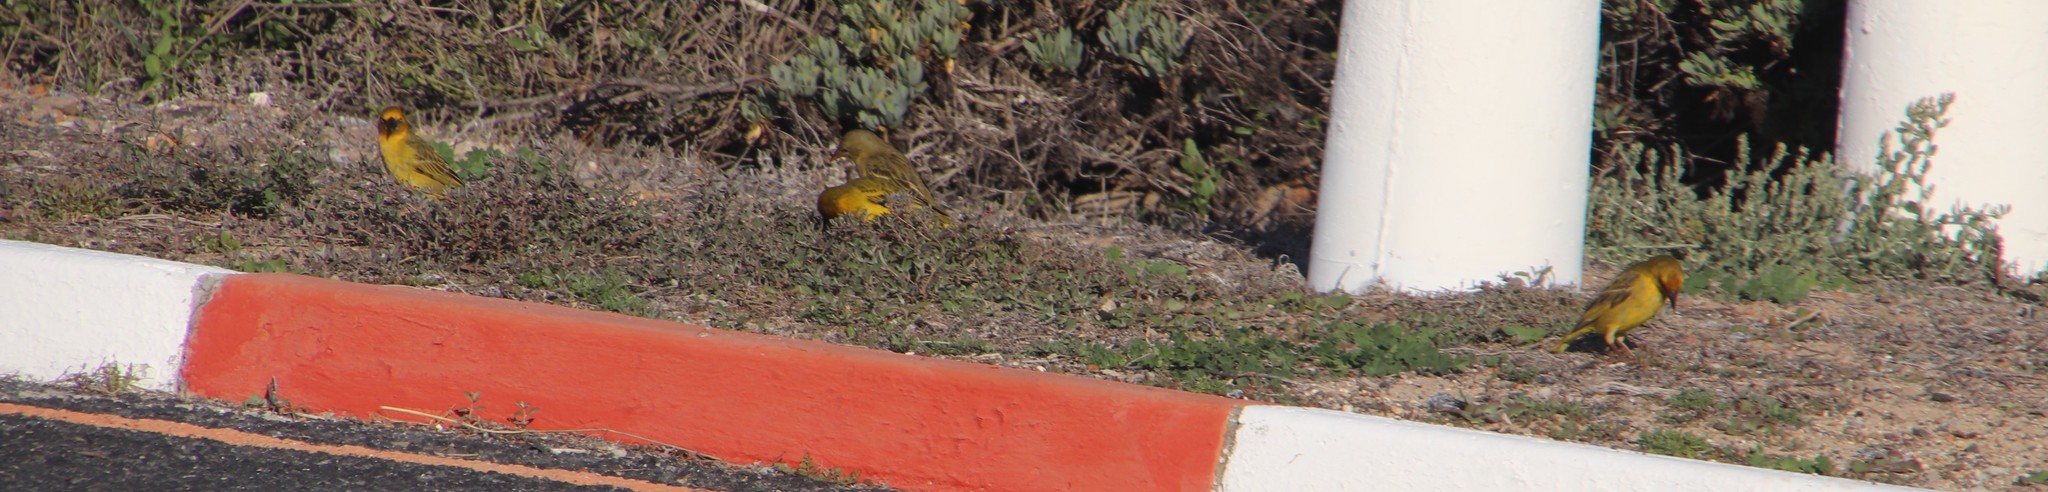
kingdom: Animalia
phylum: Chordata
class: Aves
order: Passeriformes
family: Ploceidae
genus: Ploceus
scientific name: Ploceus capensis
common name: Cape weaver
